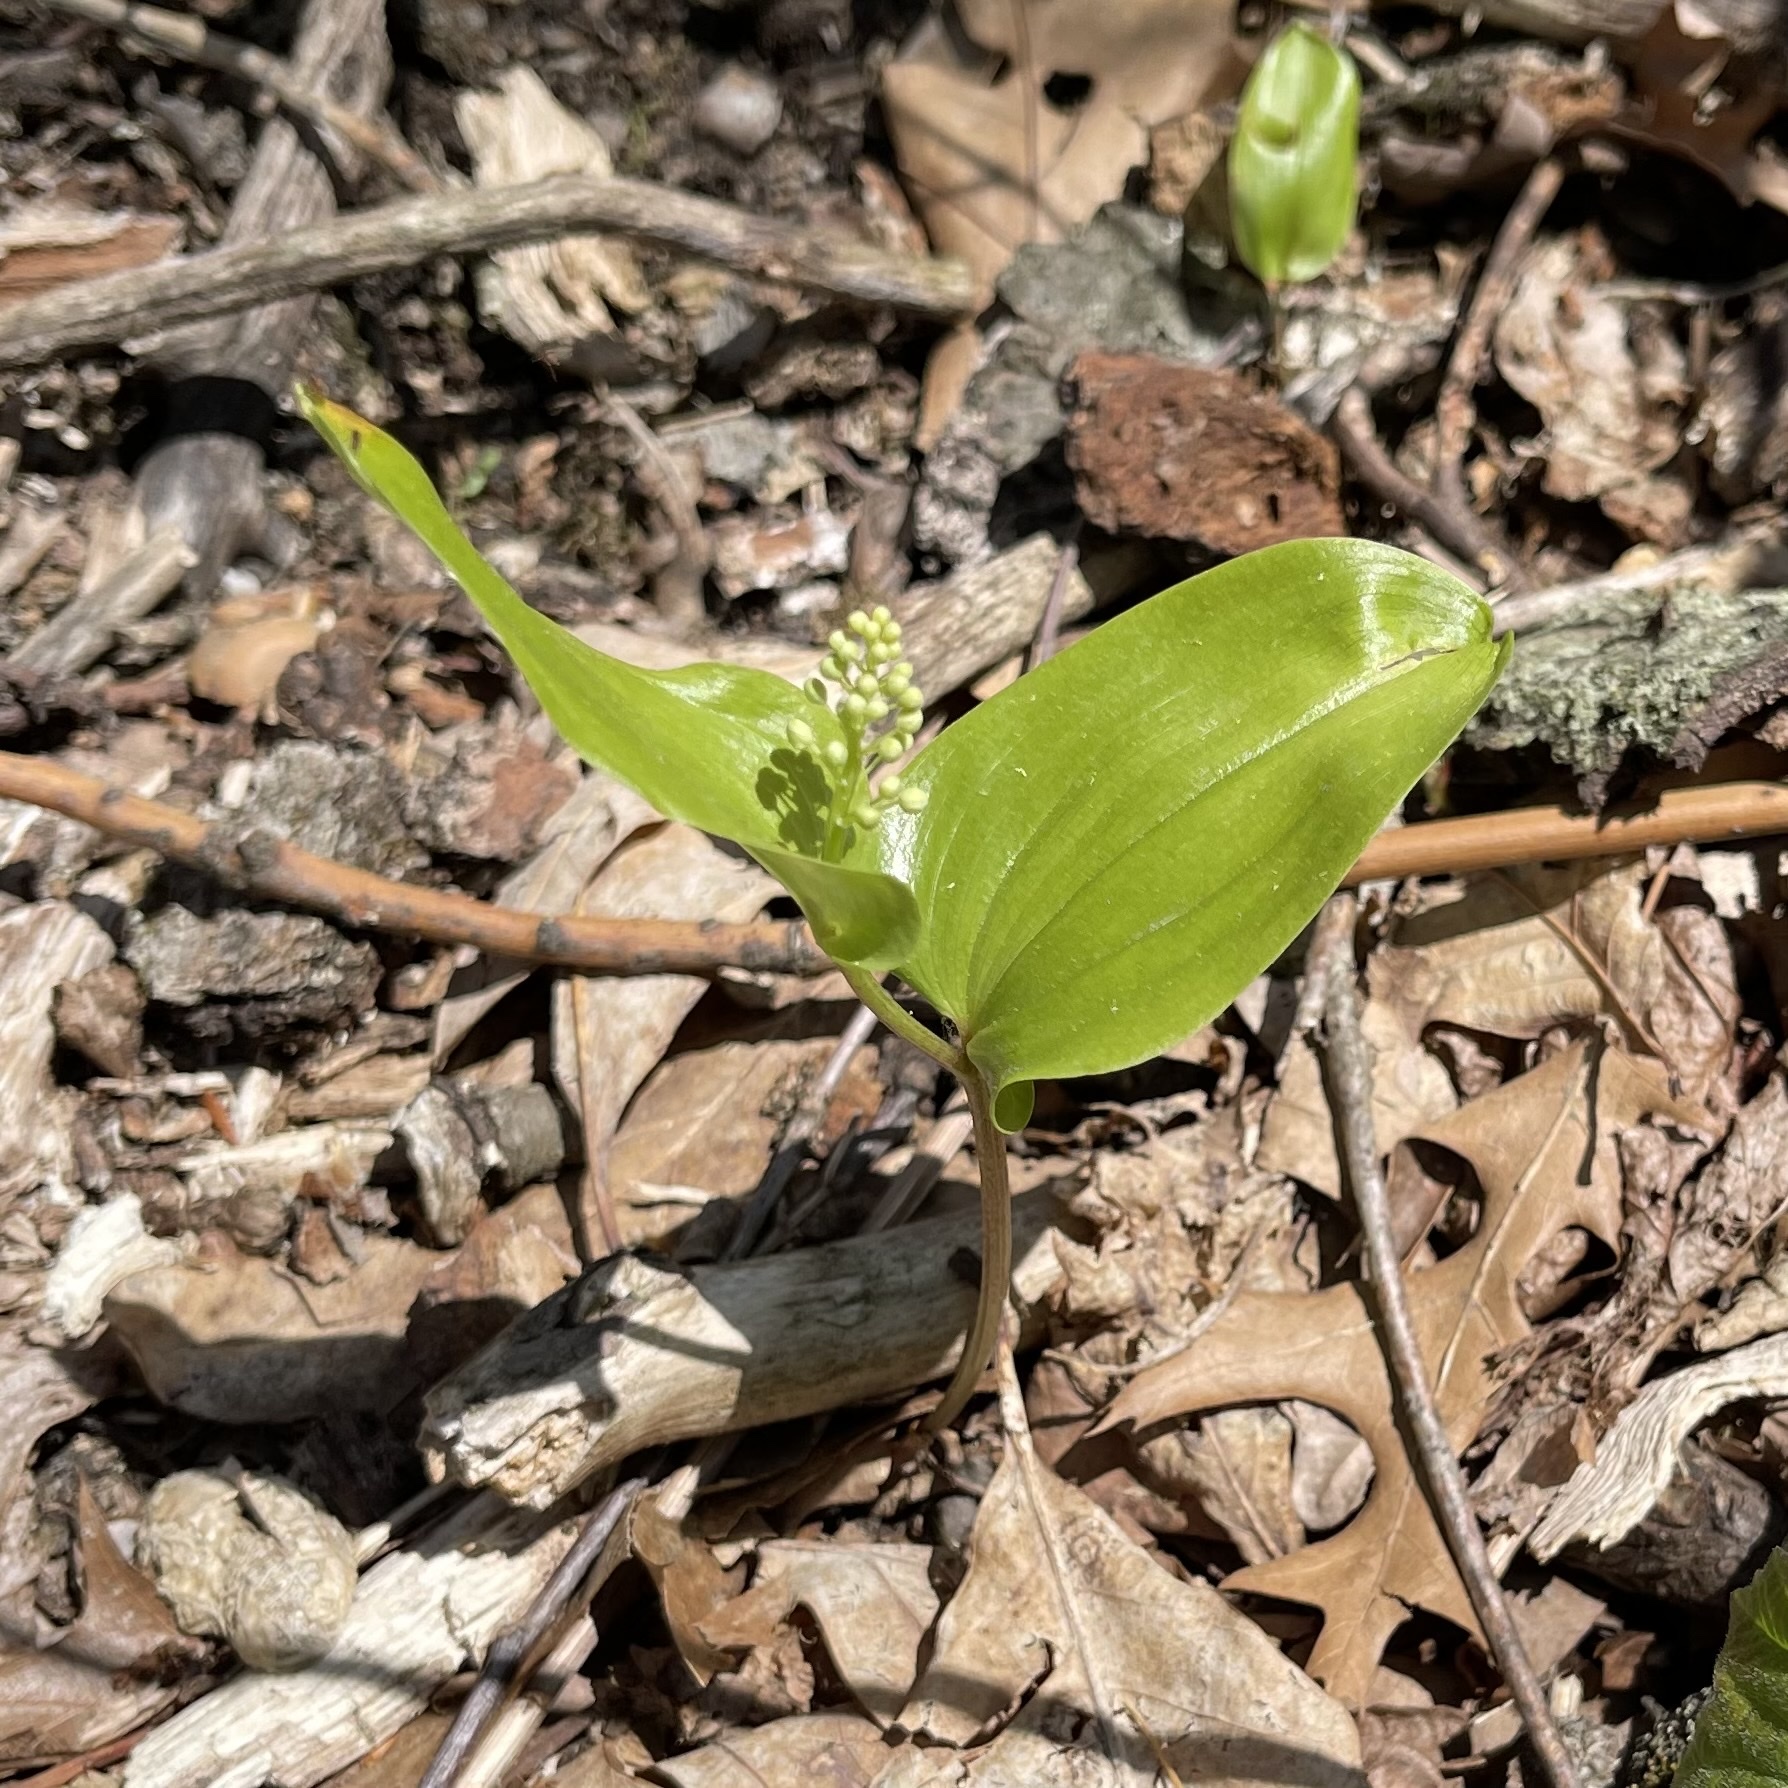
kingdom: Plantae
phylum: Tracheophyta
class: Liliopsida
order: Asparagales
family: Asparagaceae
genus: Maianthemum
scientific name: Maianthemum canadense
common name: False lily-of-the-valley
